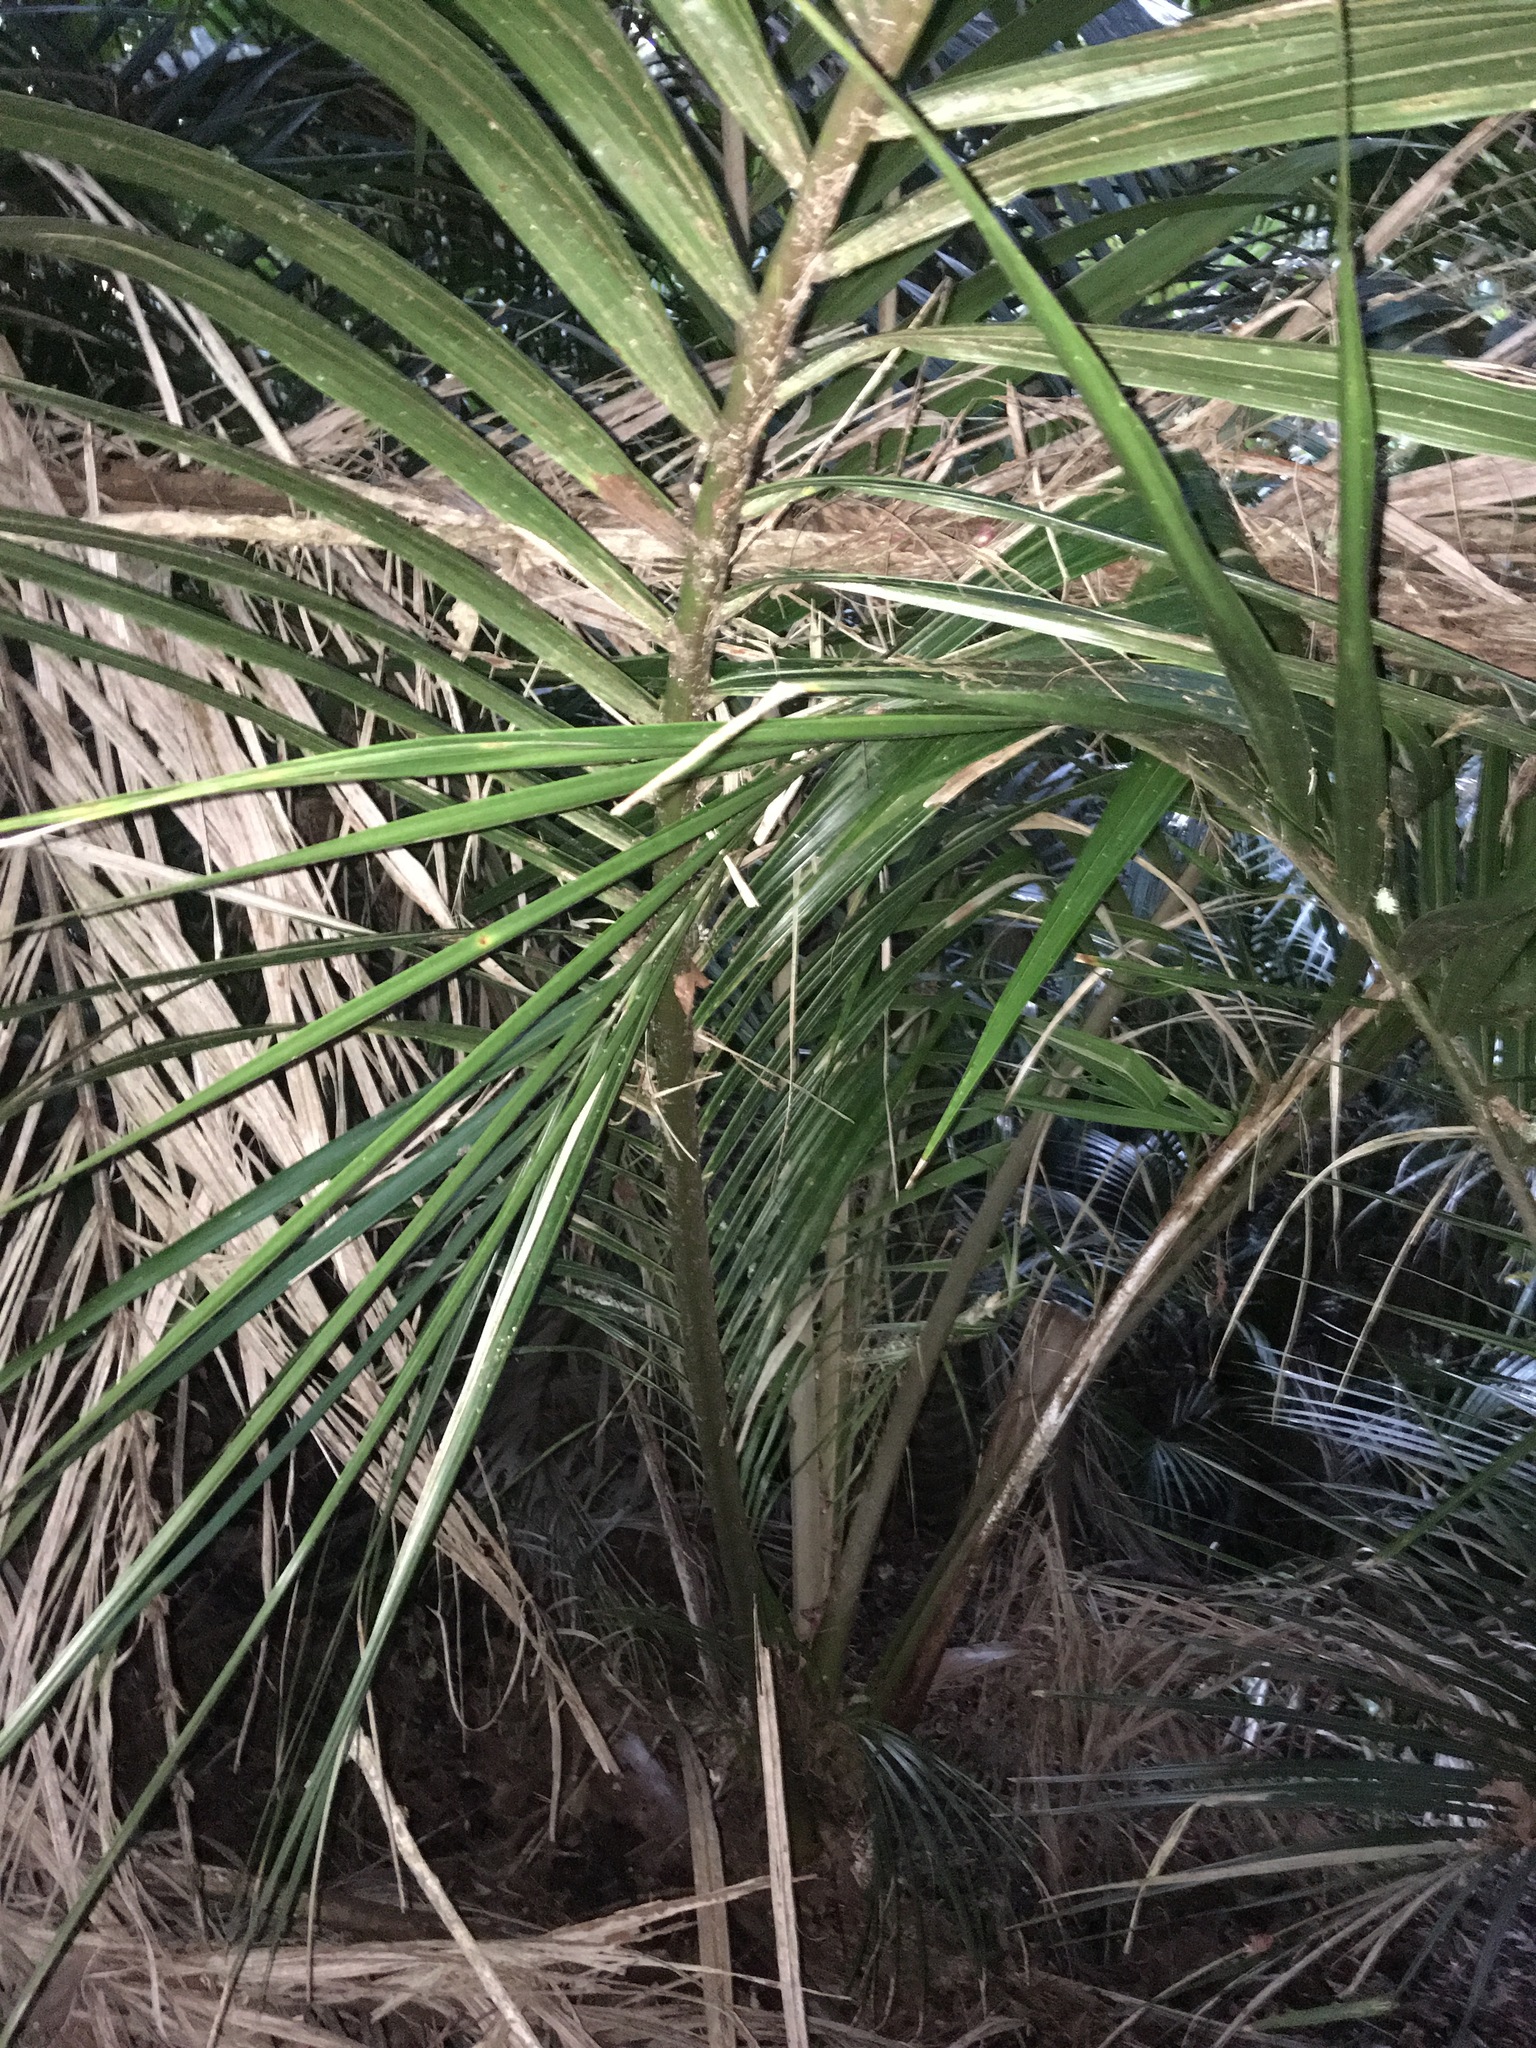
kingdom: Plantae
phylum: Tracheophyta
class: Liliopsida
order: Arecales
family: Arecaceae
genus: Rhopalostylis
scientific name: Rhopalostylis sapida
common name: Feather-duster palm
